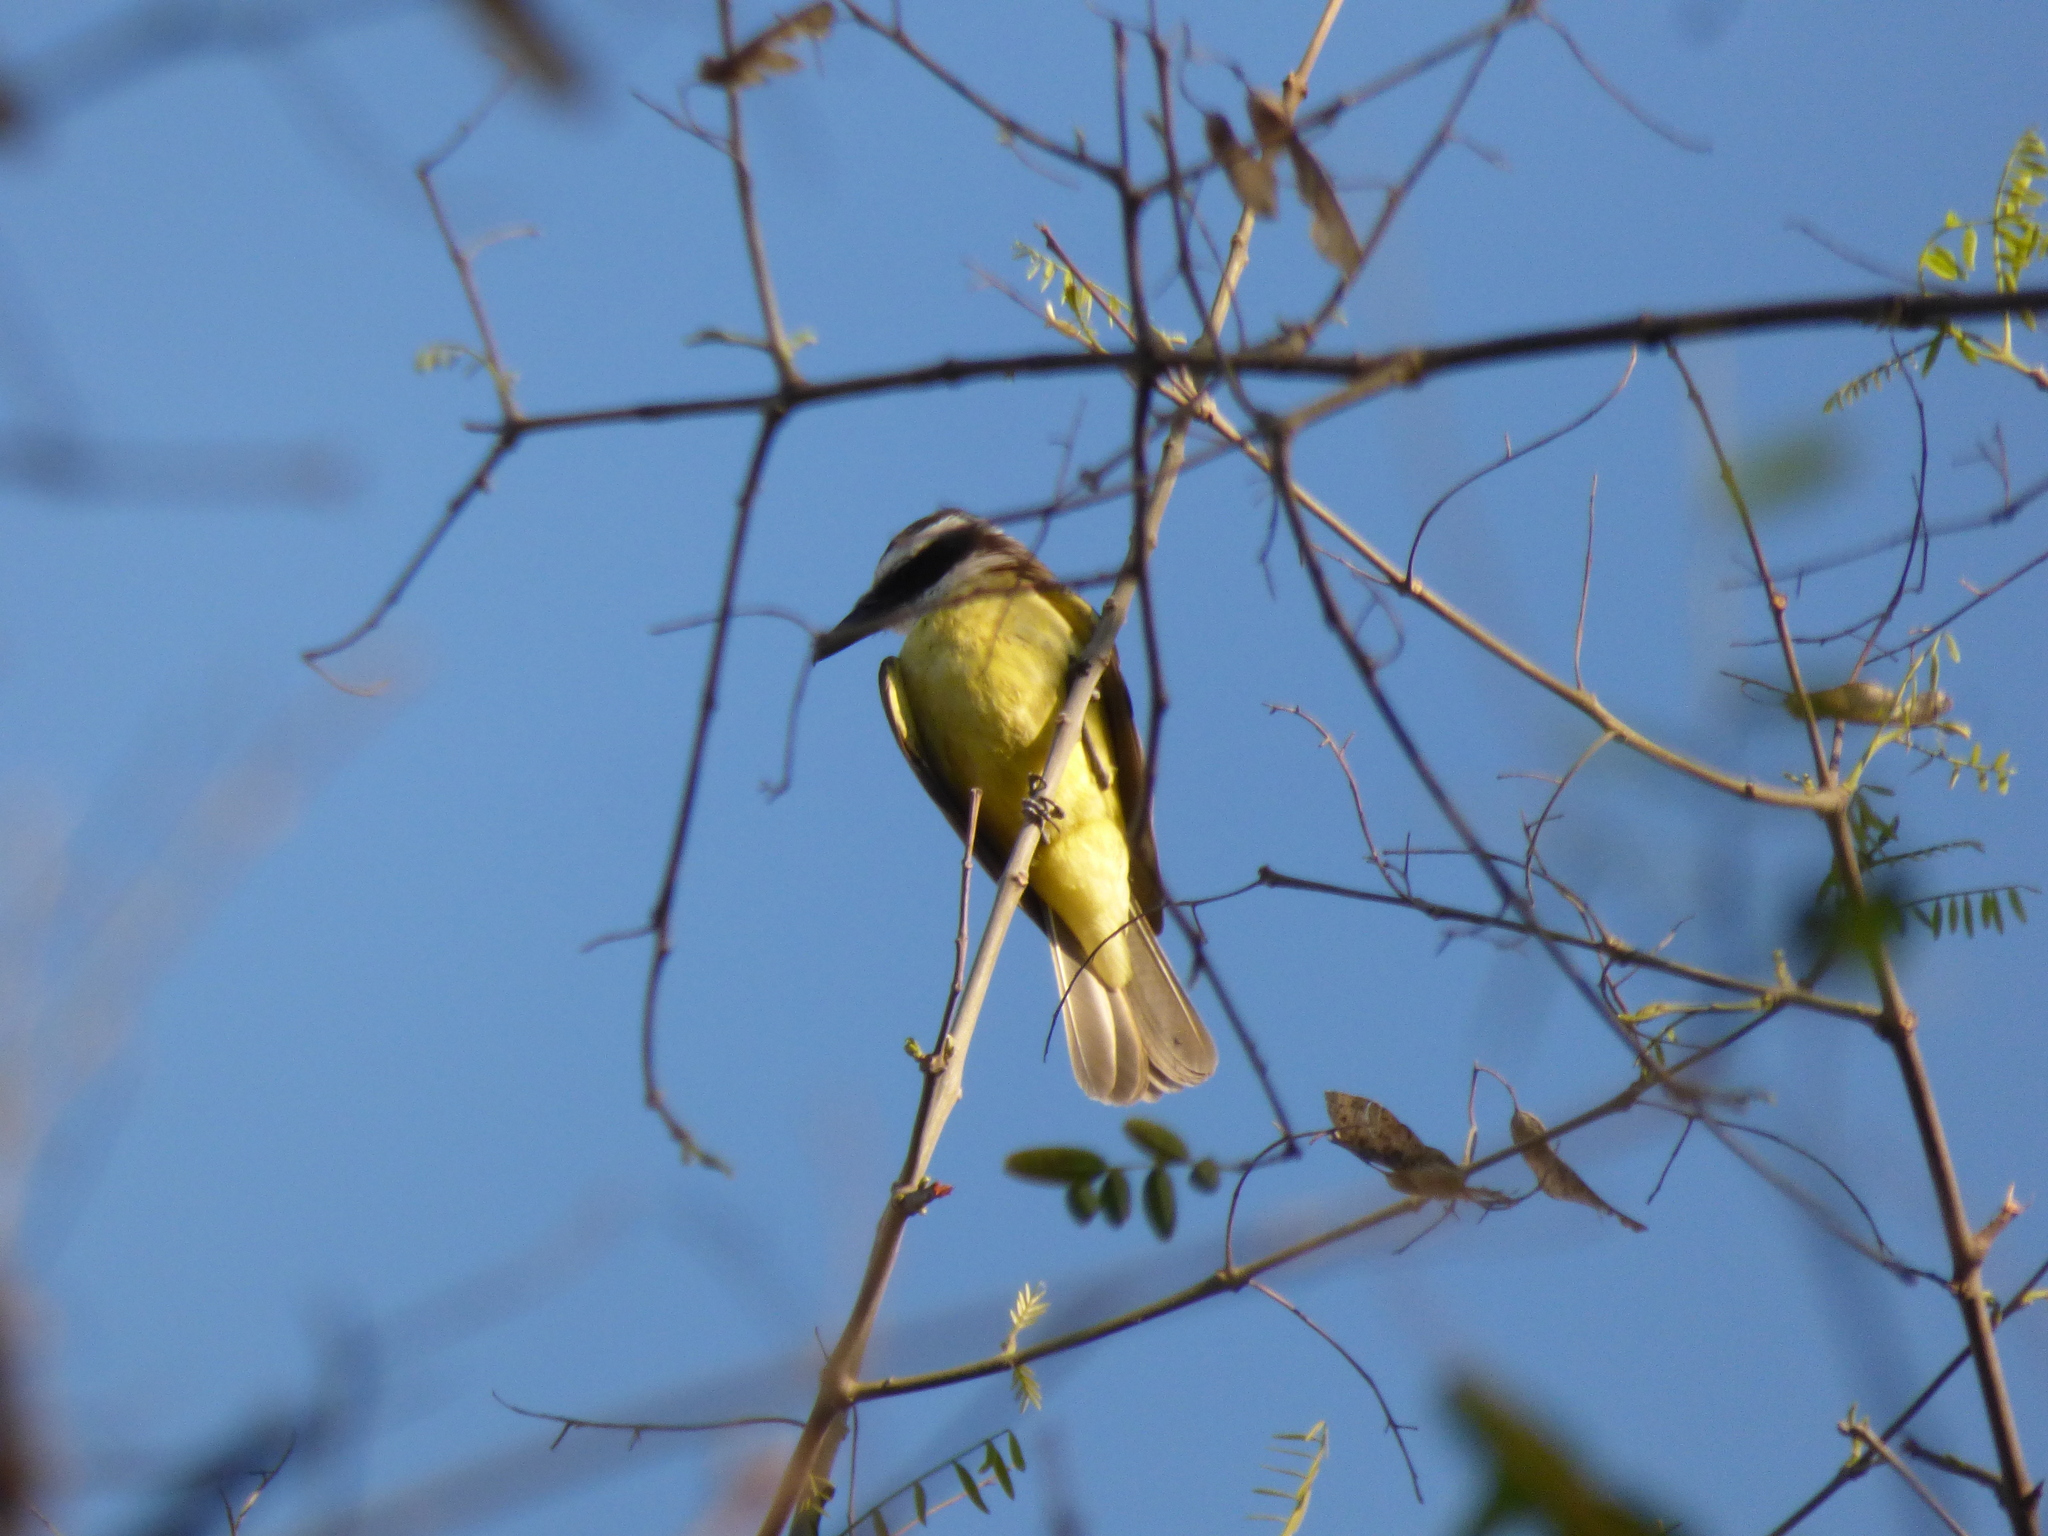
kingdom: Animalia
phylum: Chordata
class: Aves
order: Passeriformes
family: Tyrannidae
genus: Pitangus
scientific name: Pitangus sulphuratus
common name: Great kiskadee
